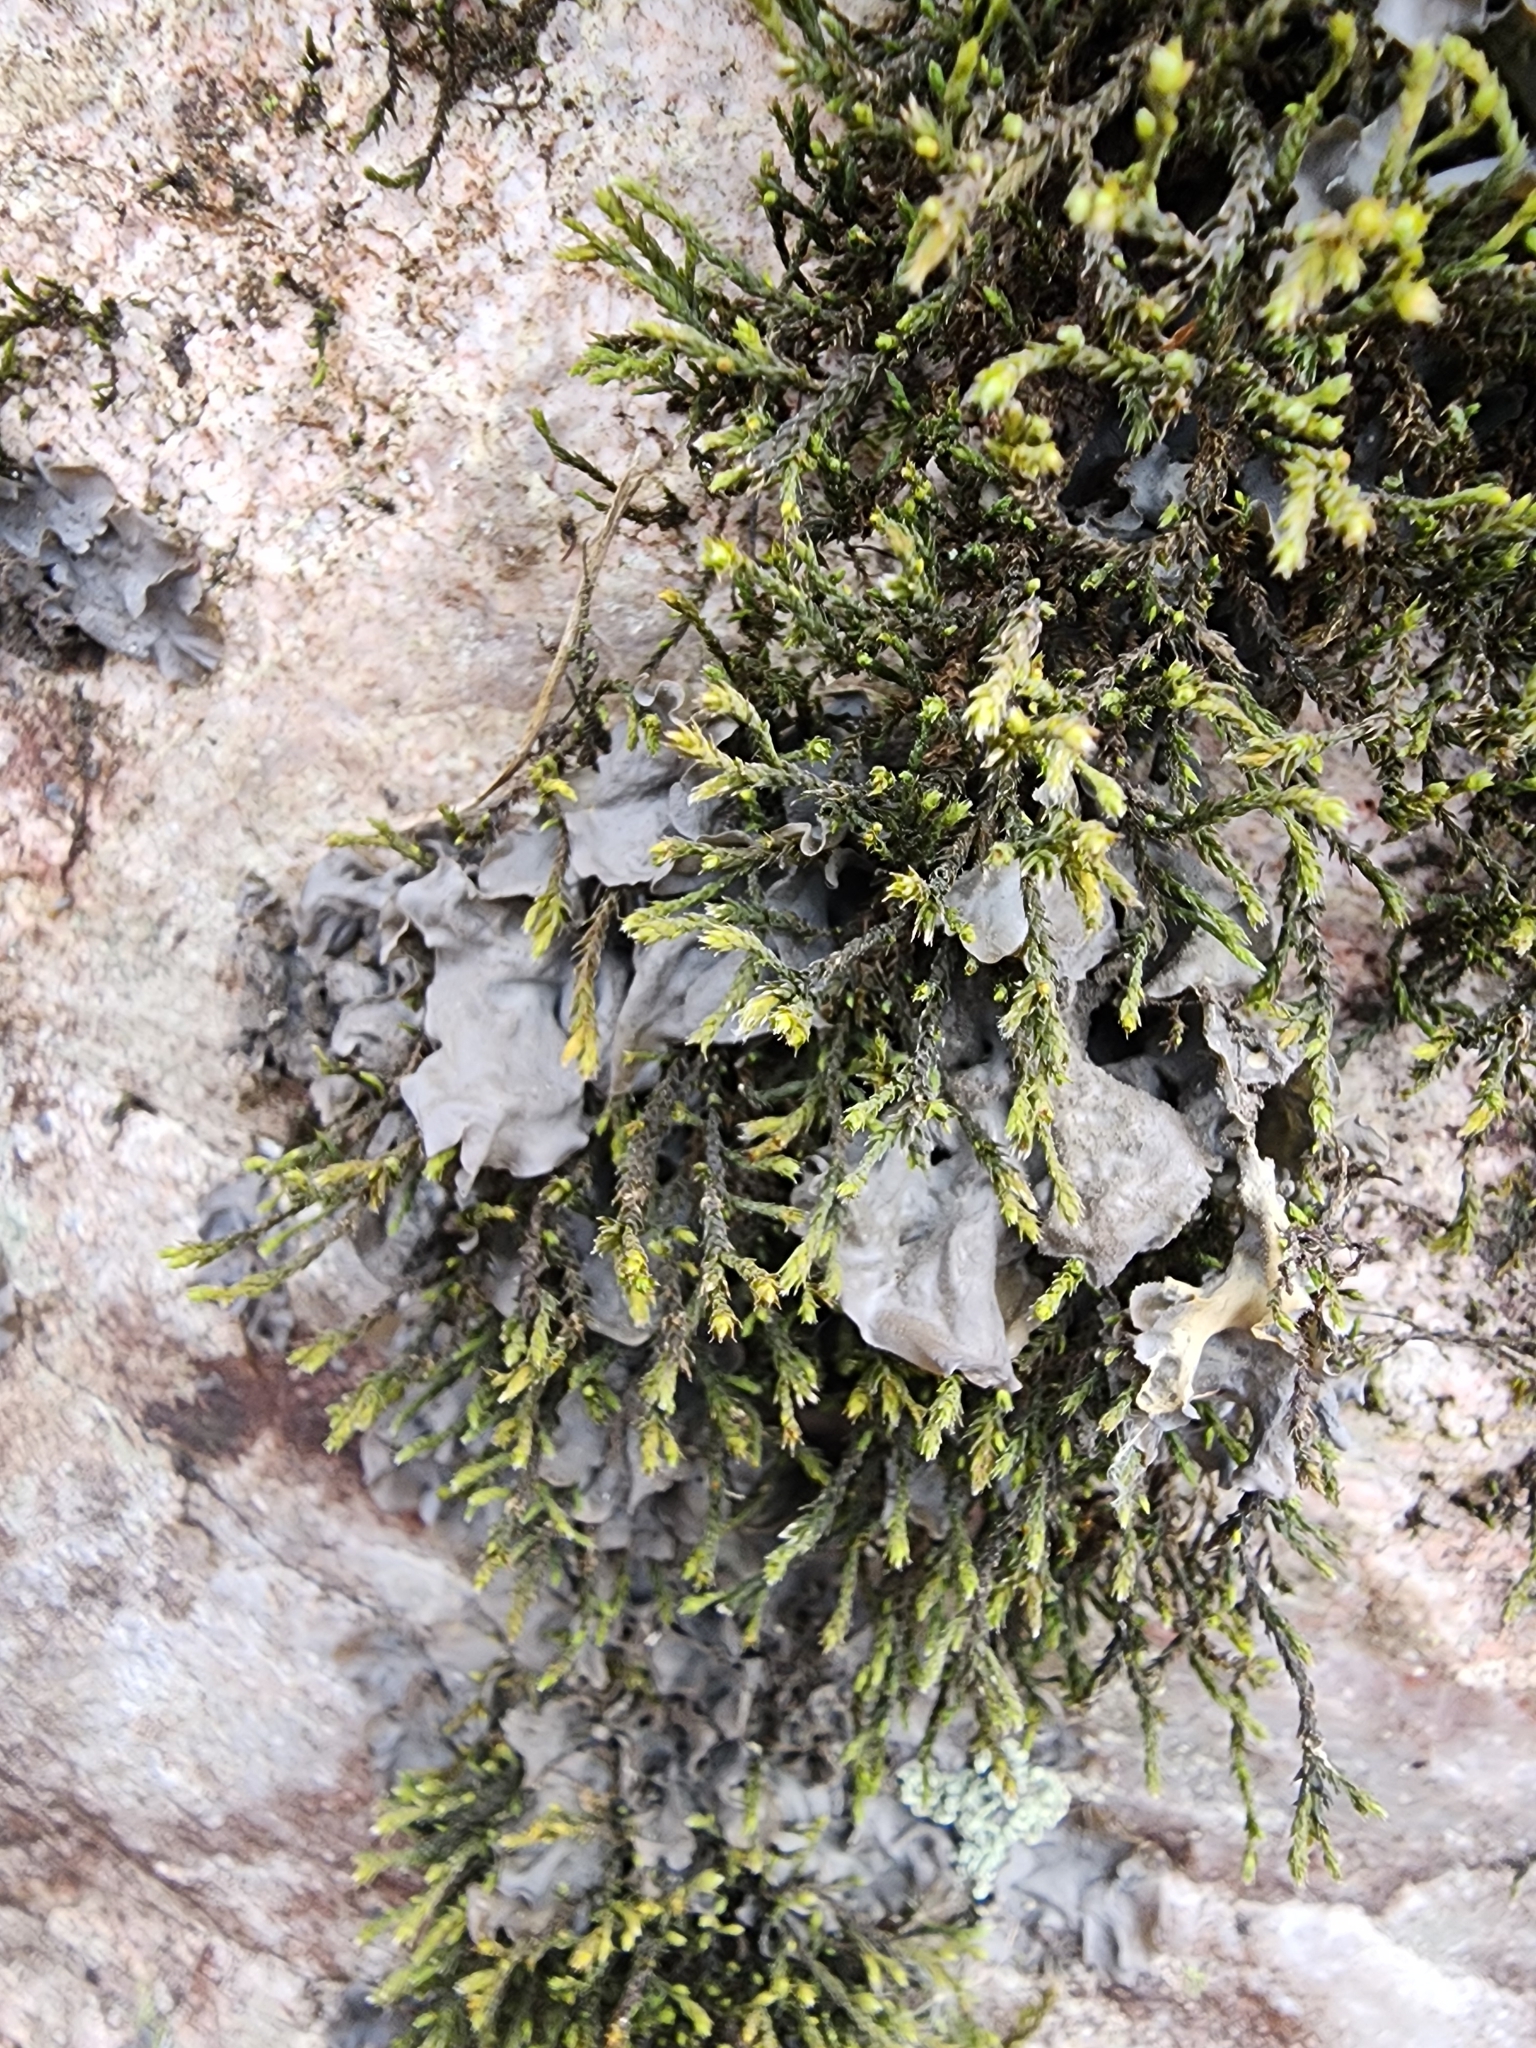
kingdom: Fungi
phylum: Ascomycota
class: Lecanoromycetes
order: Peltigerales
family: Collemataceae
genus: Leptogium
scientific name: Leptogium cyanescens
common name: Blue jellyskin
